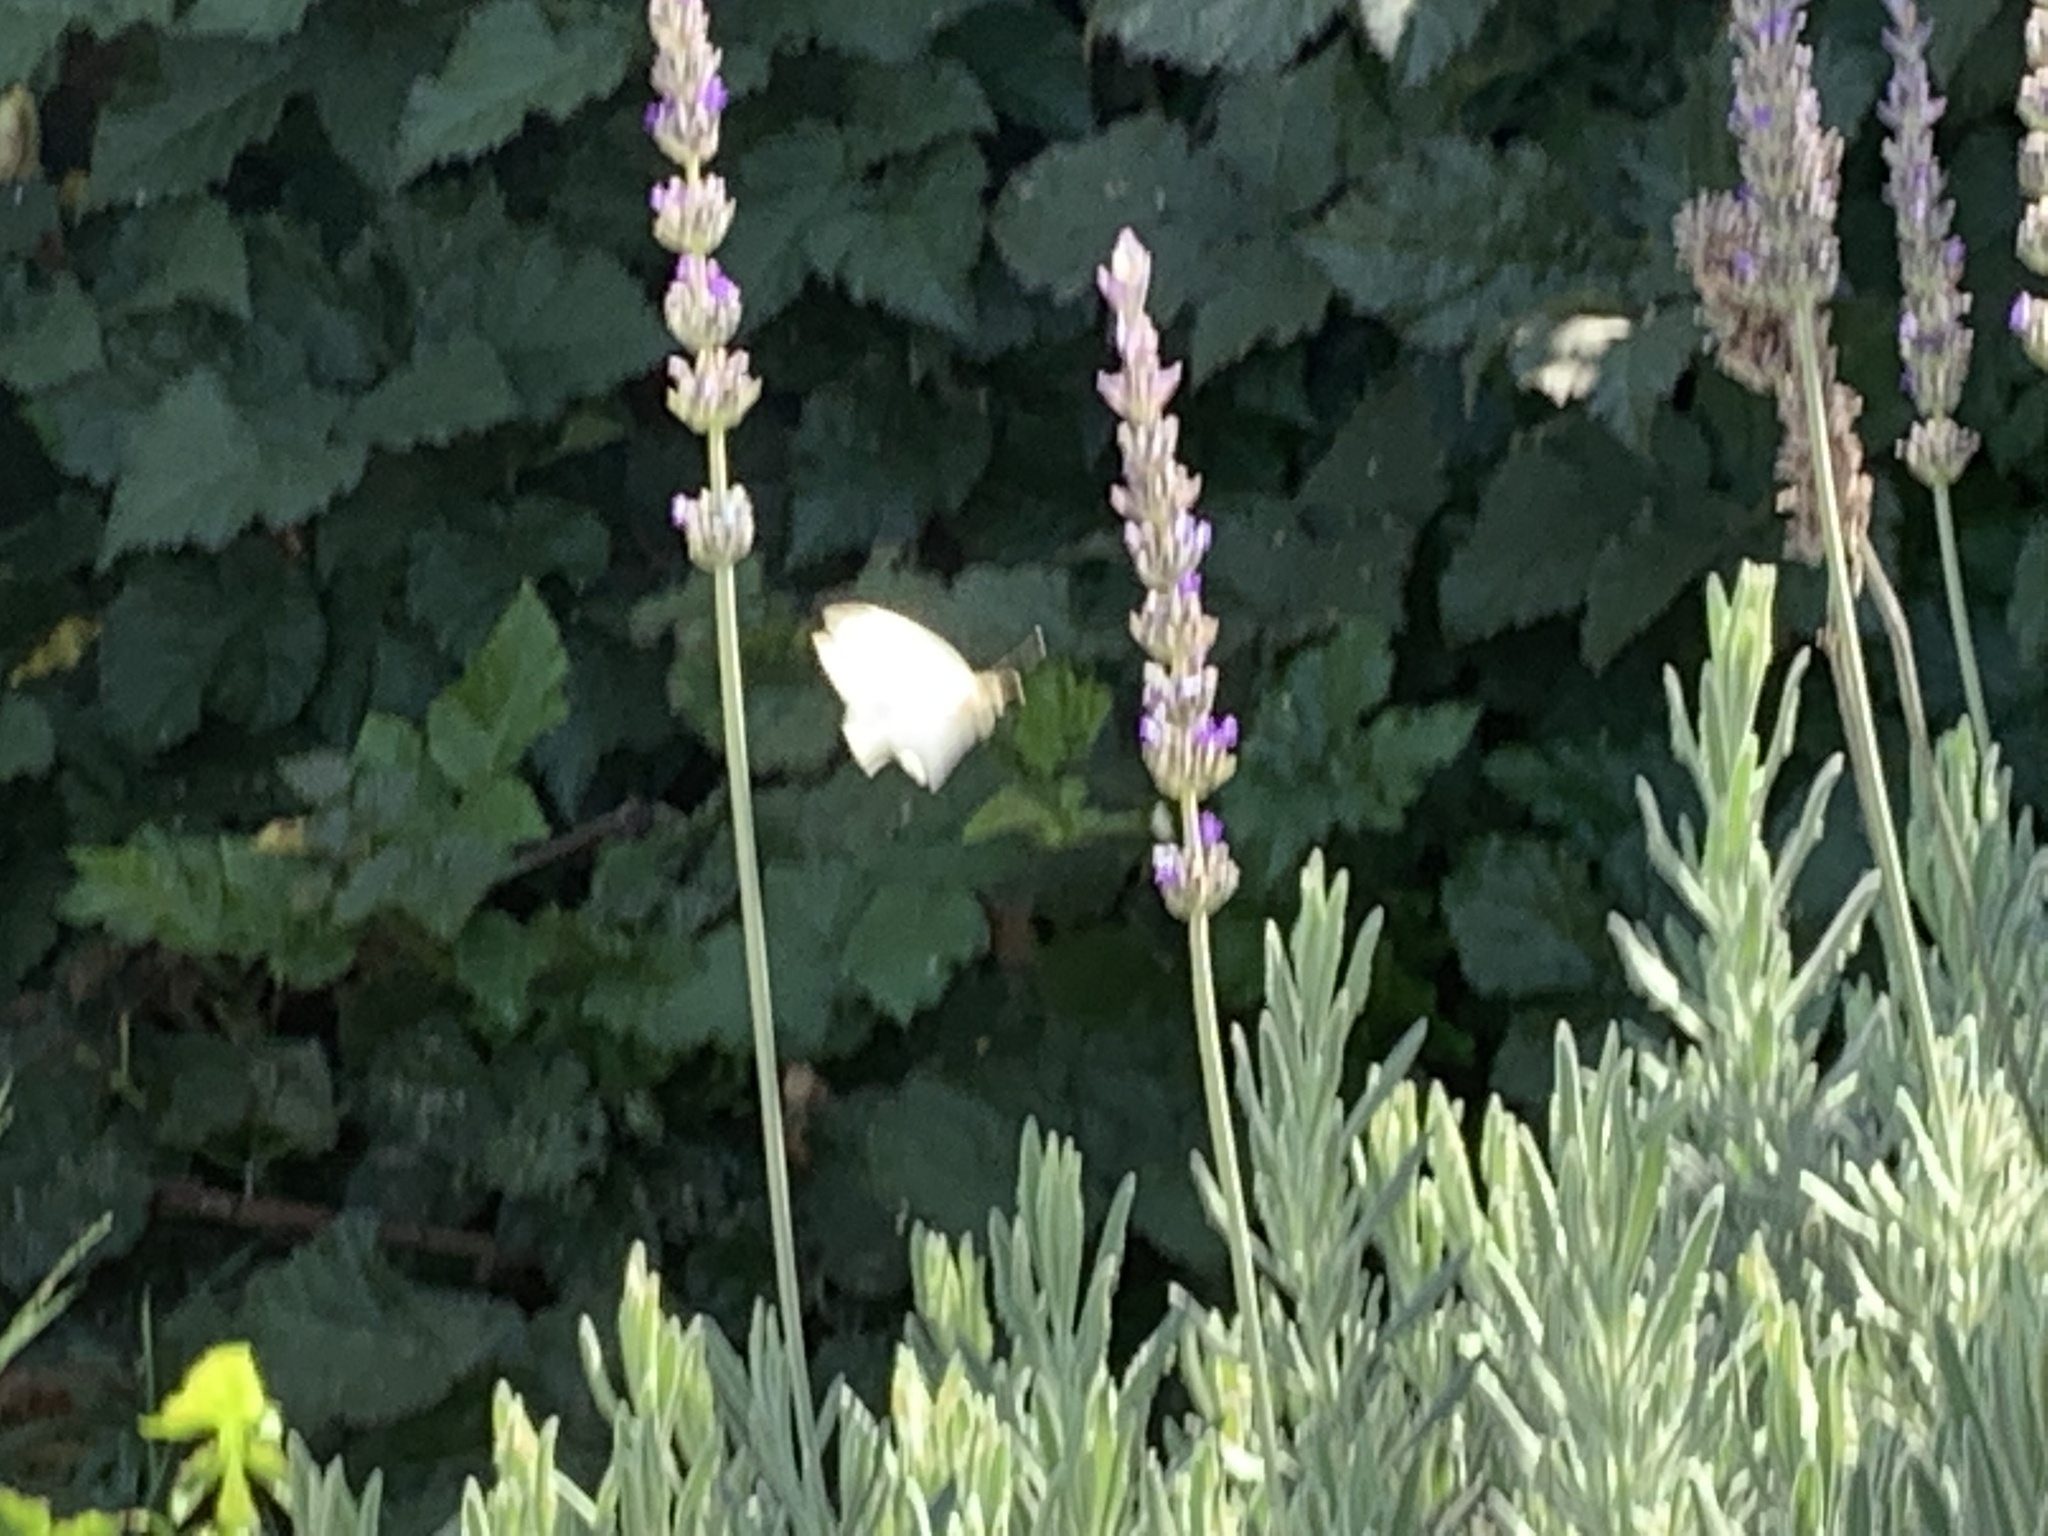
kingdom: Animalia
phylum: Arthropoda
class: Insecta
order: Lepidoptera
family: Pieridae
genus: Pieris
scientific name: Pieris rapae
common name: Small white
